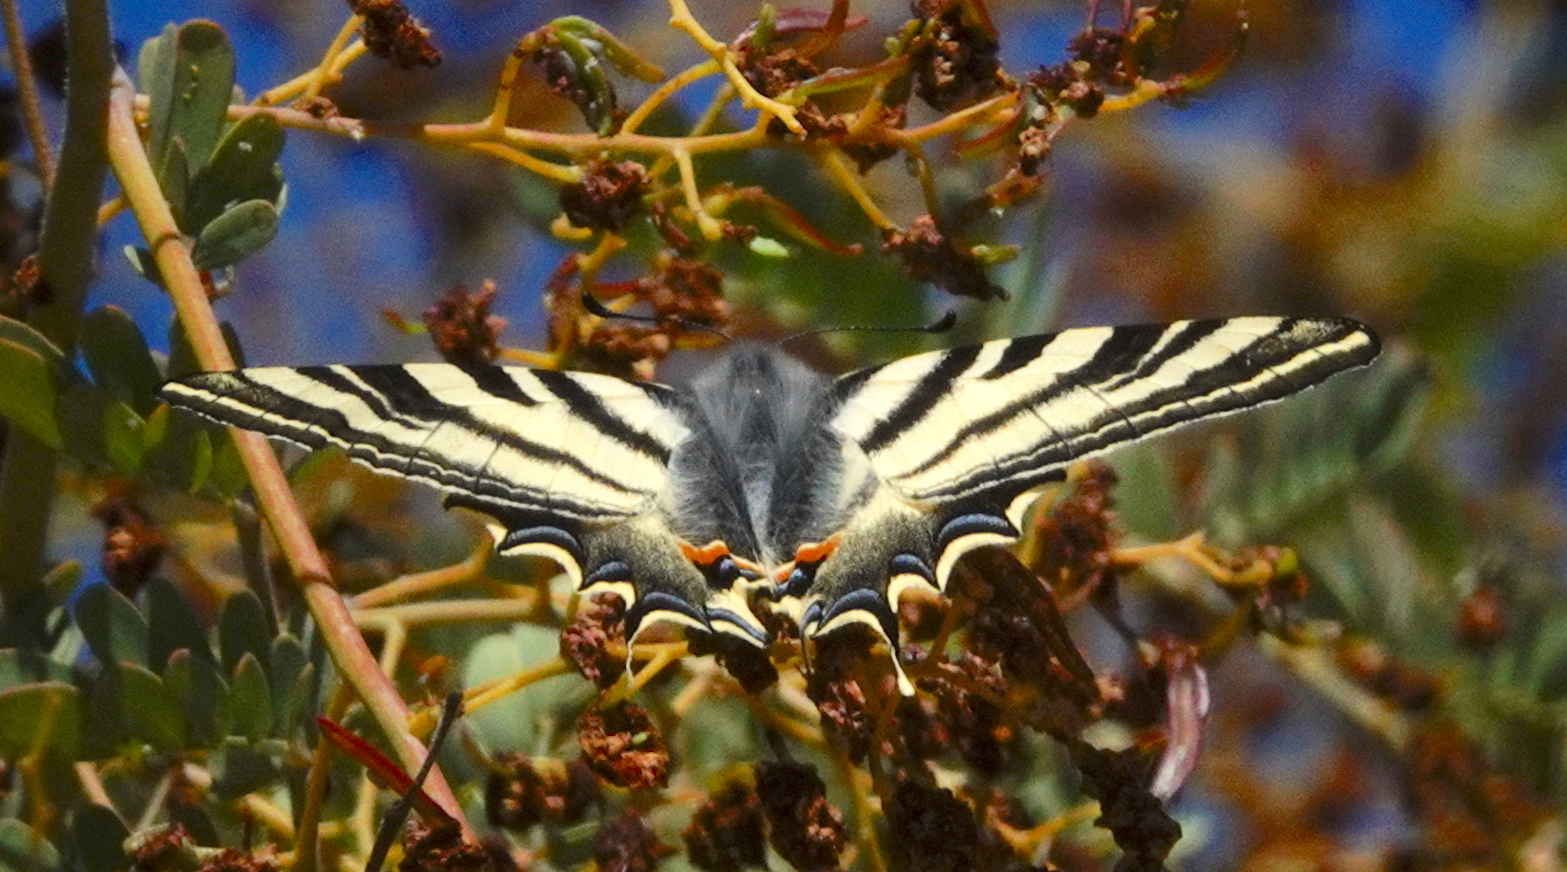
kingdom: Animalia
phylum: Arthropoda
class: Insecta
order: Lepidoptera
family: Papilionidae
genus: Iphiclides
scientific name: Iphiclides feisthamelii
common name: Iberian scarce swallowtail
